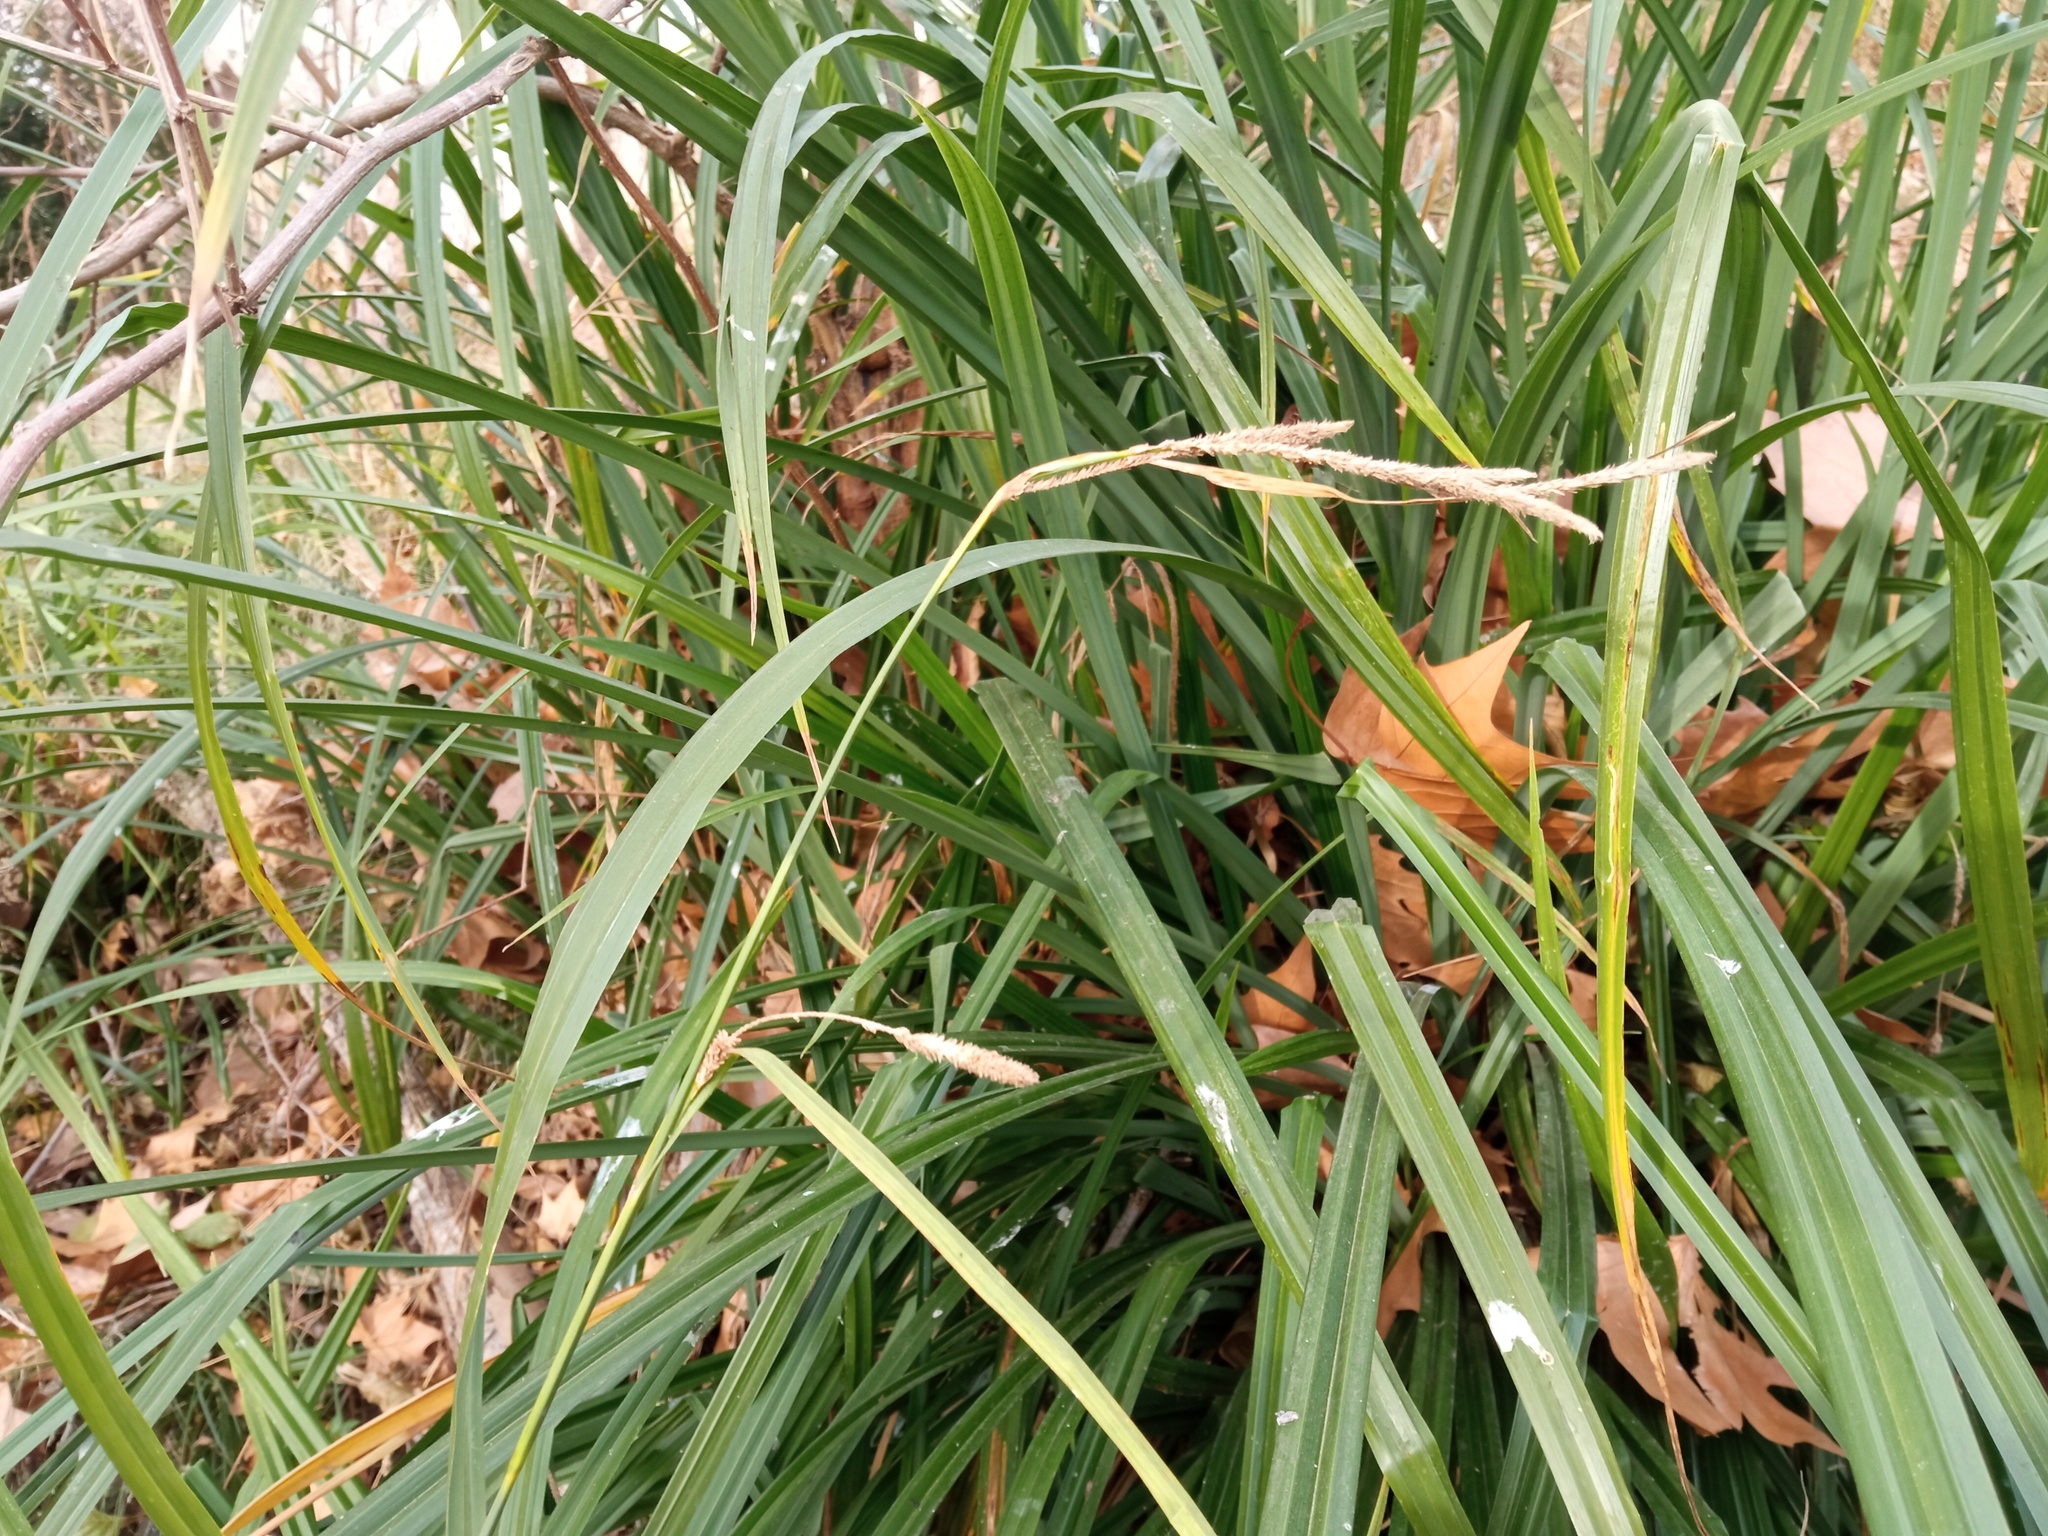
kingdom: Plantae
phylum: Tracheophyta
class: Liliopsida
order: Poales
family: Cyperaceae
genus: Carex
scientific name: Carex pendula
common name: Pendulous sedge
